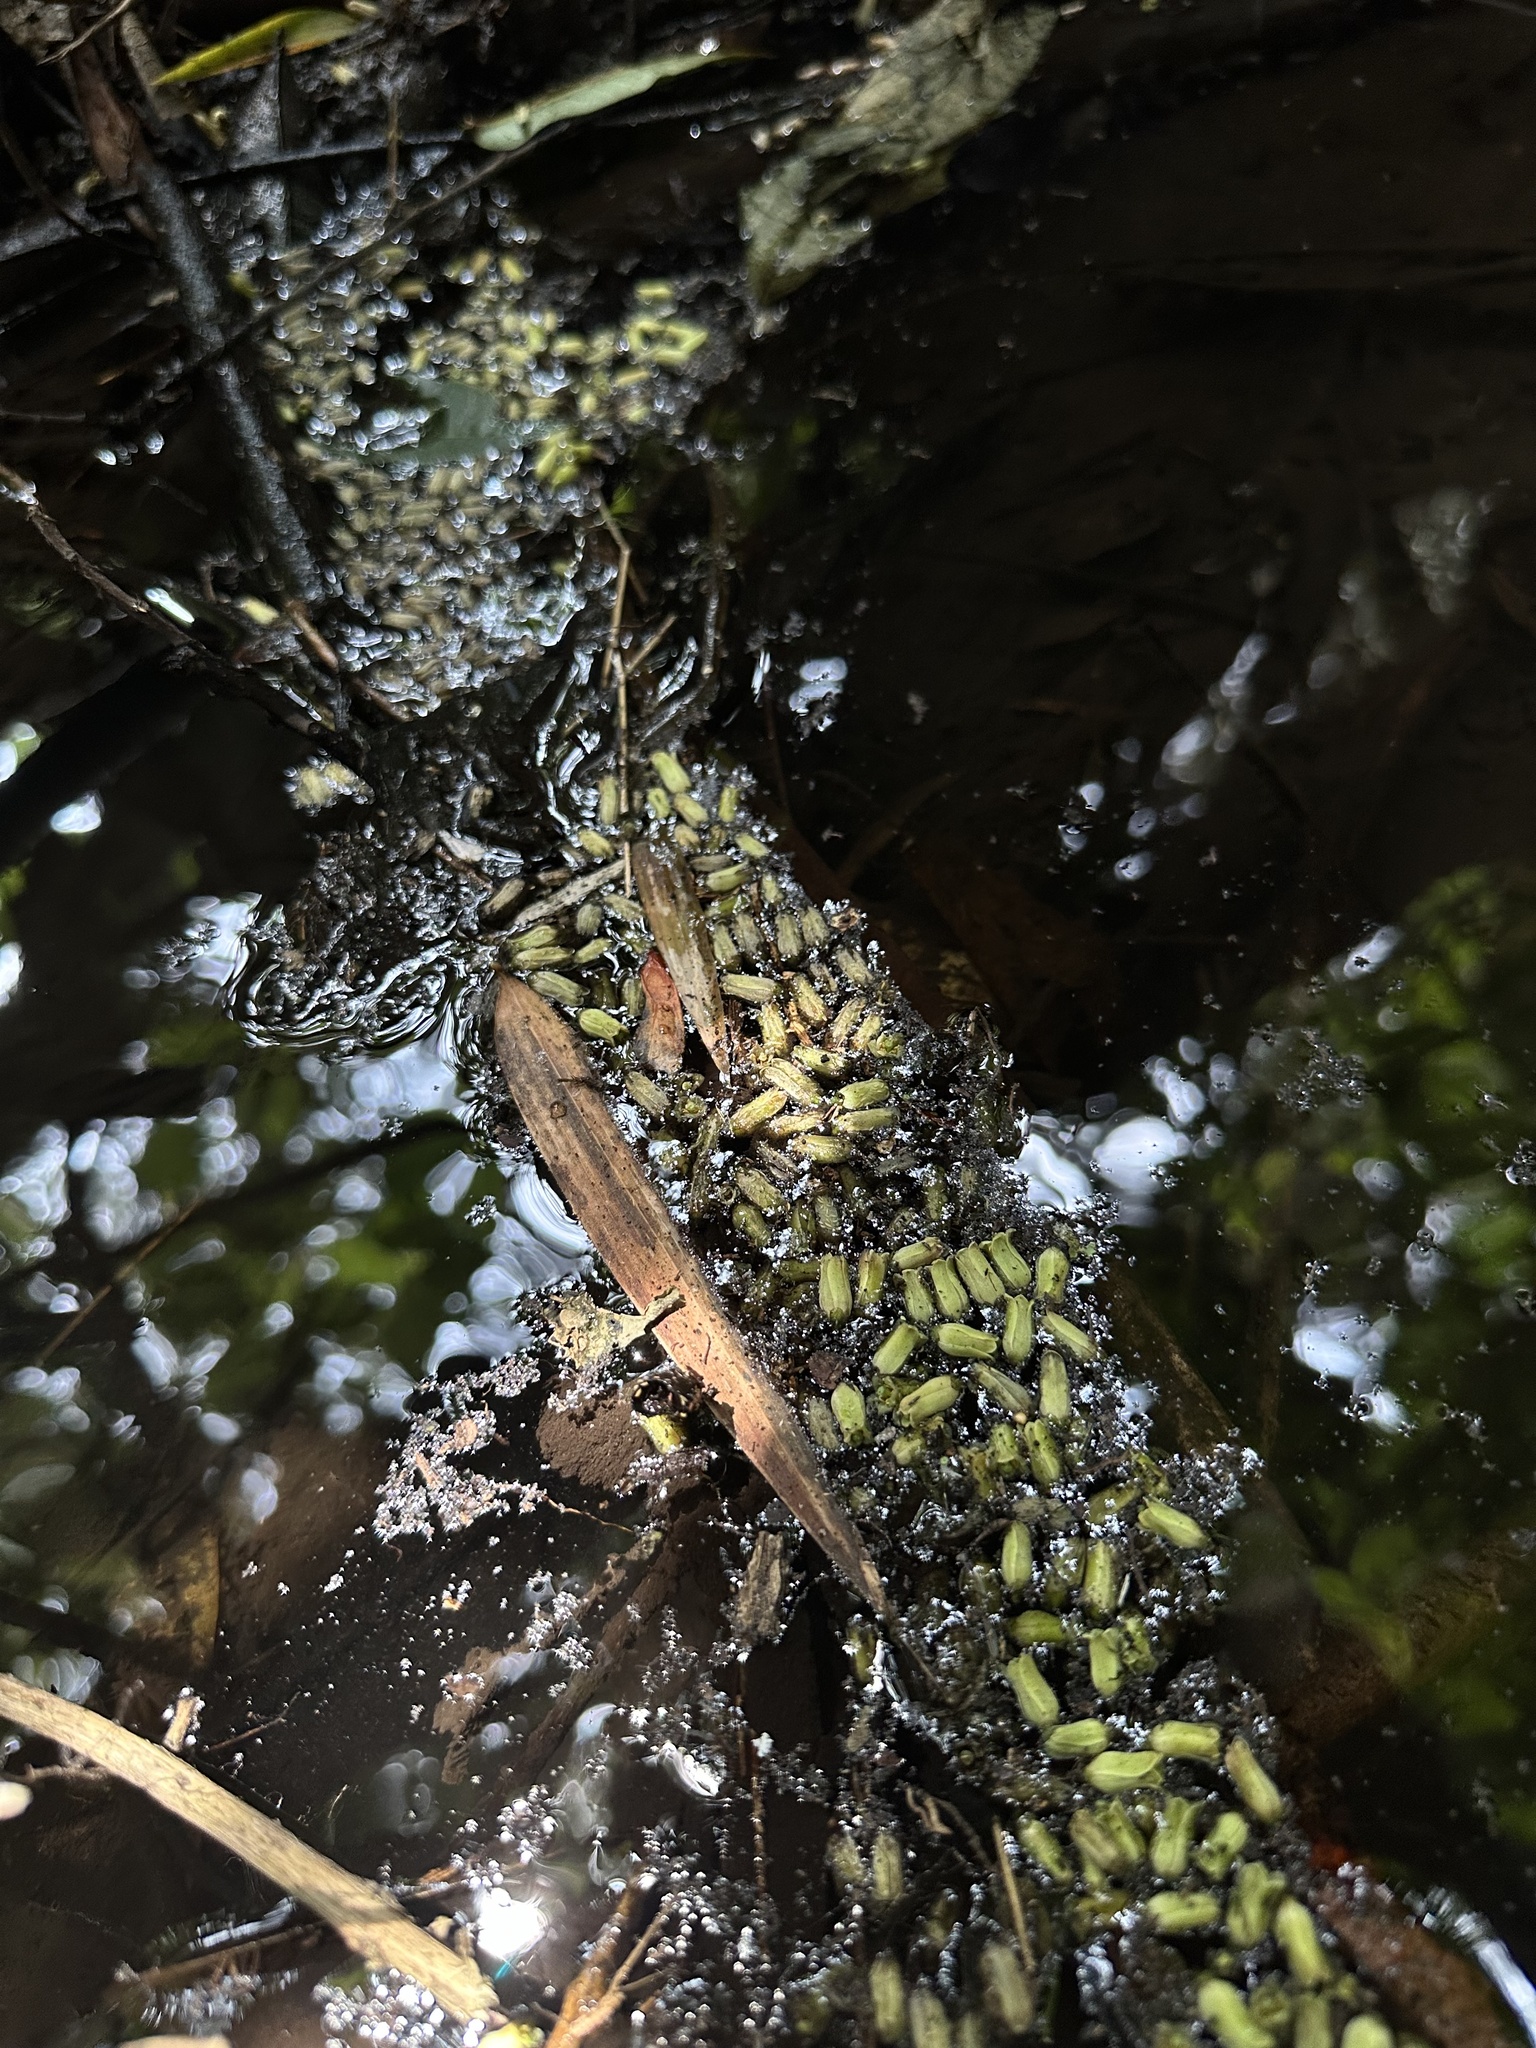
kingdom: Plantae
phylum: Tracheophyta
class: Magnoliopsida
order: Sapindales
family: Meliaceae
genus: Cedrela
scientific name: Cedrela montana
